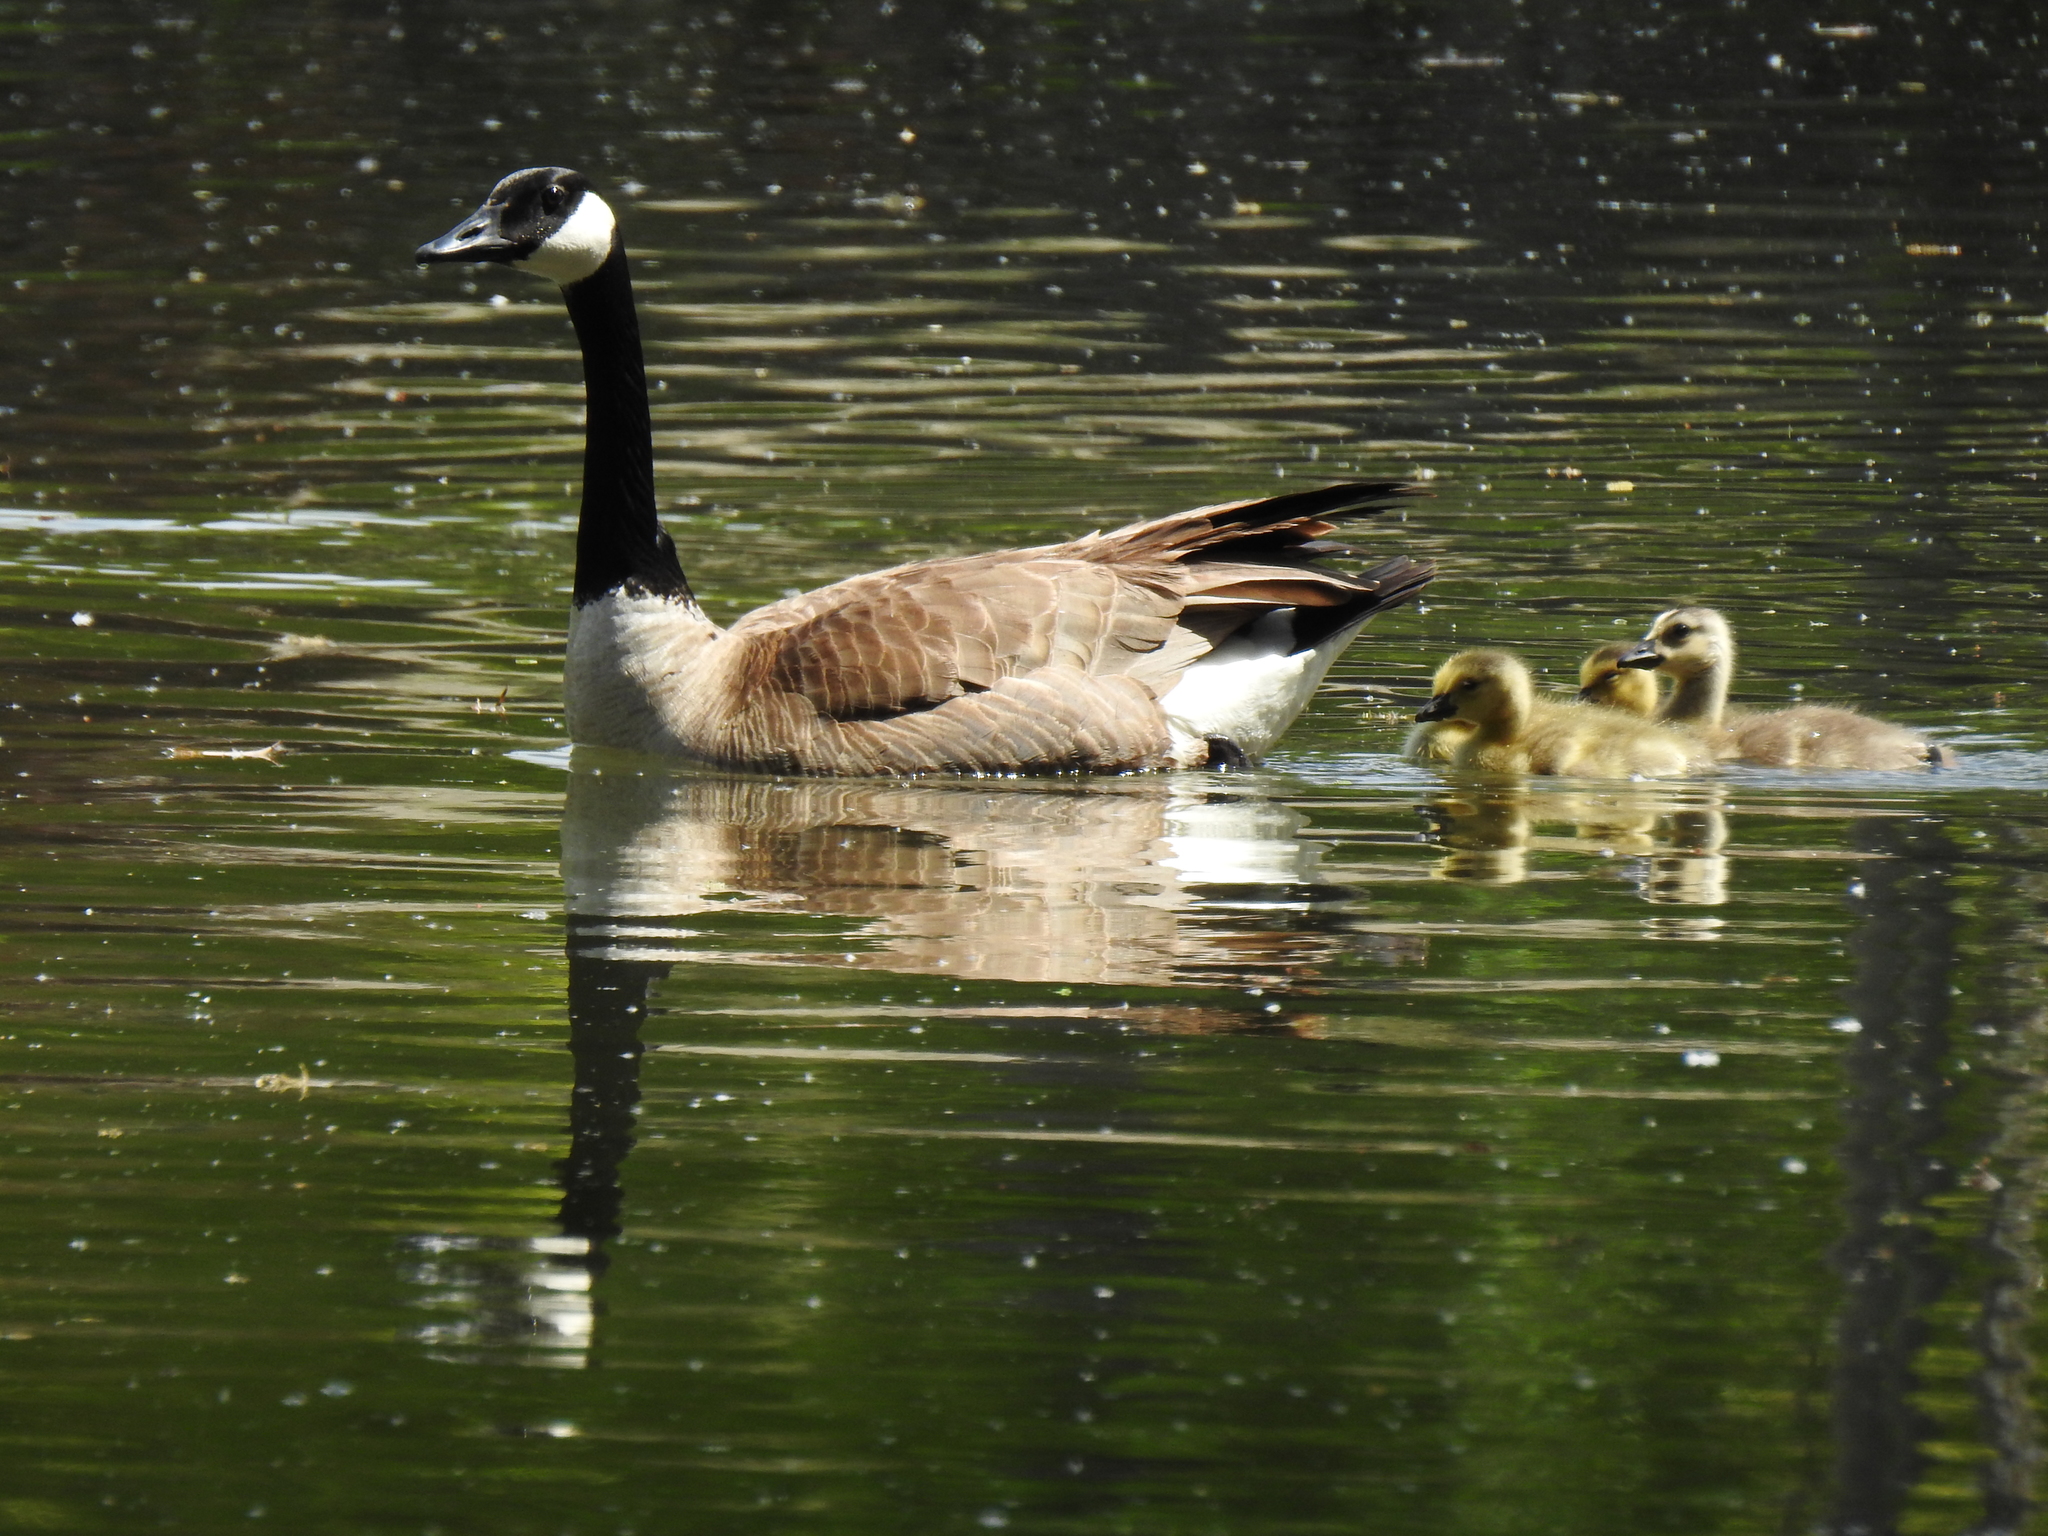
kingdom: Animalia
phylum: Chordata
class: Aves
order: Anseriformes
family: Anatidae
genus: Branta
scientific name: Branta canadensis
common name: Canada goose
